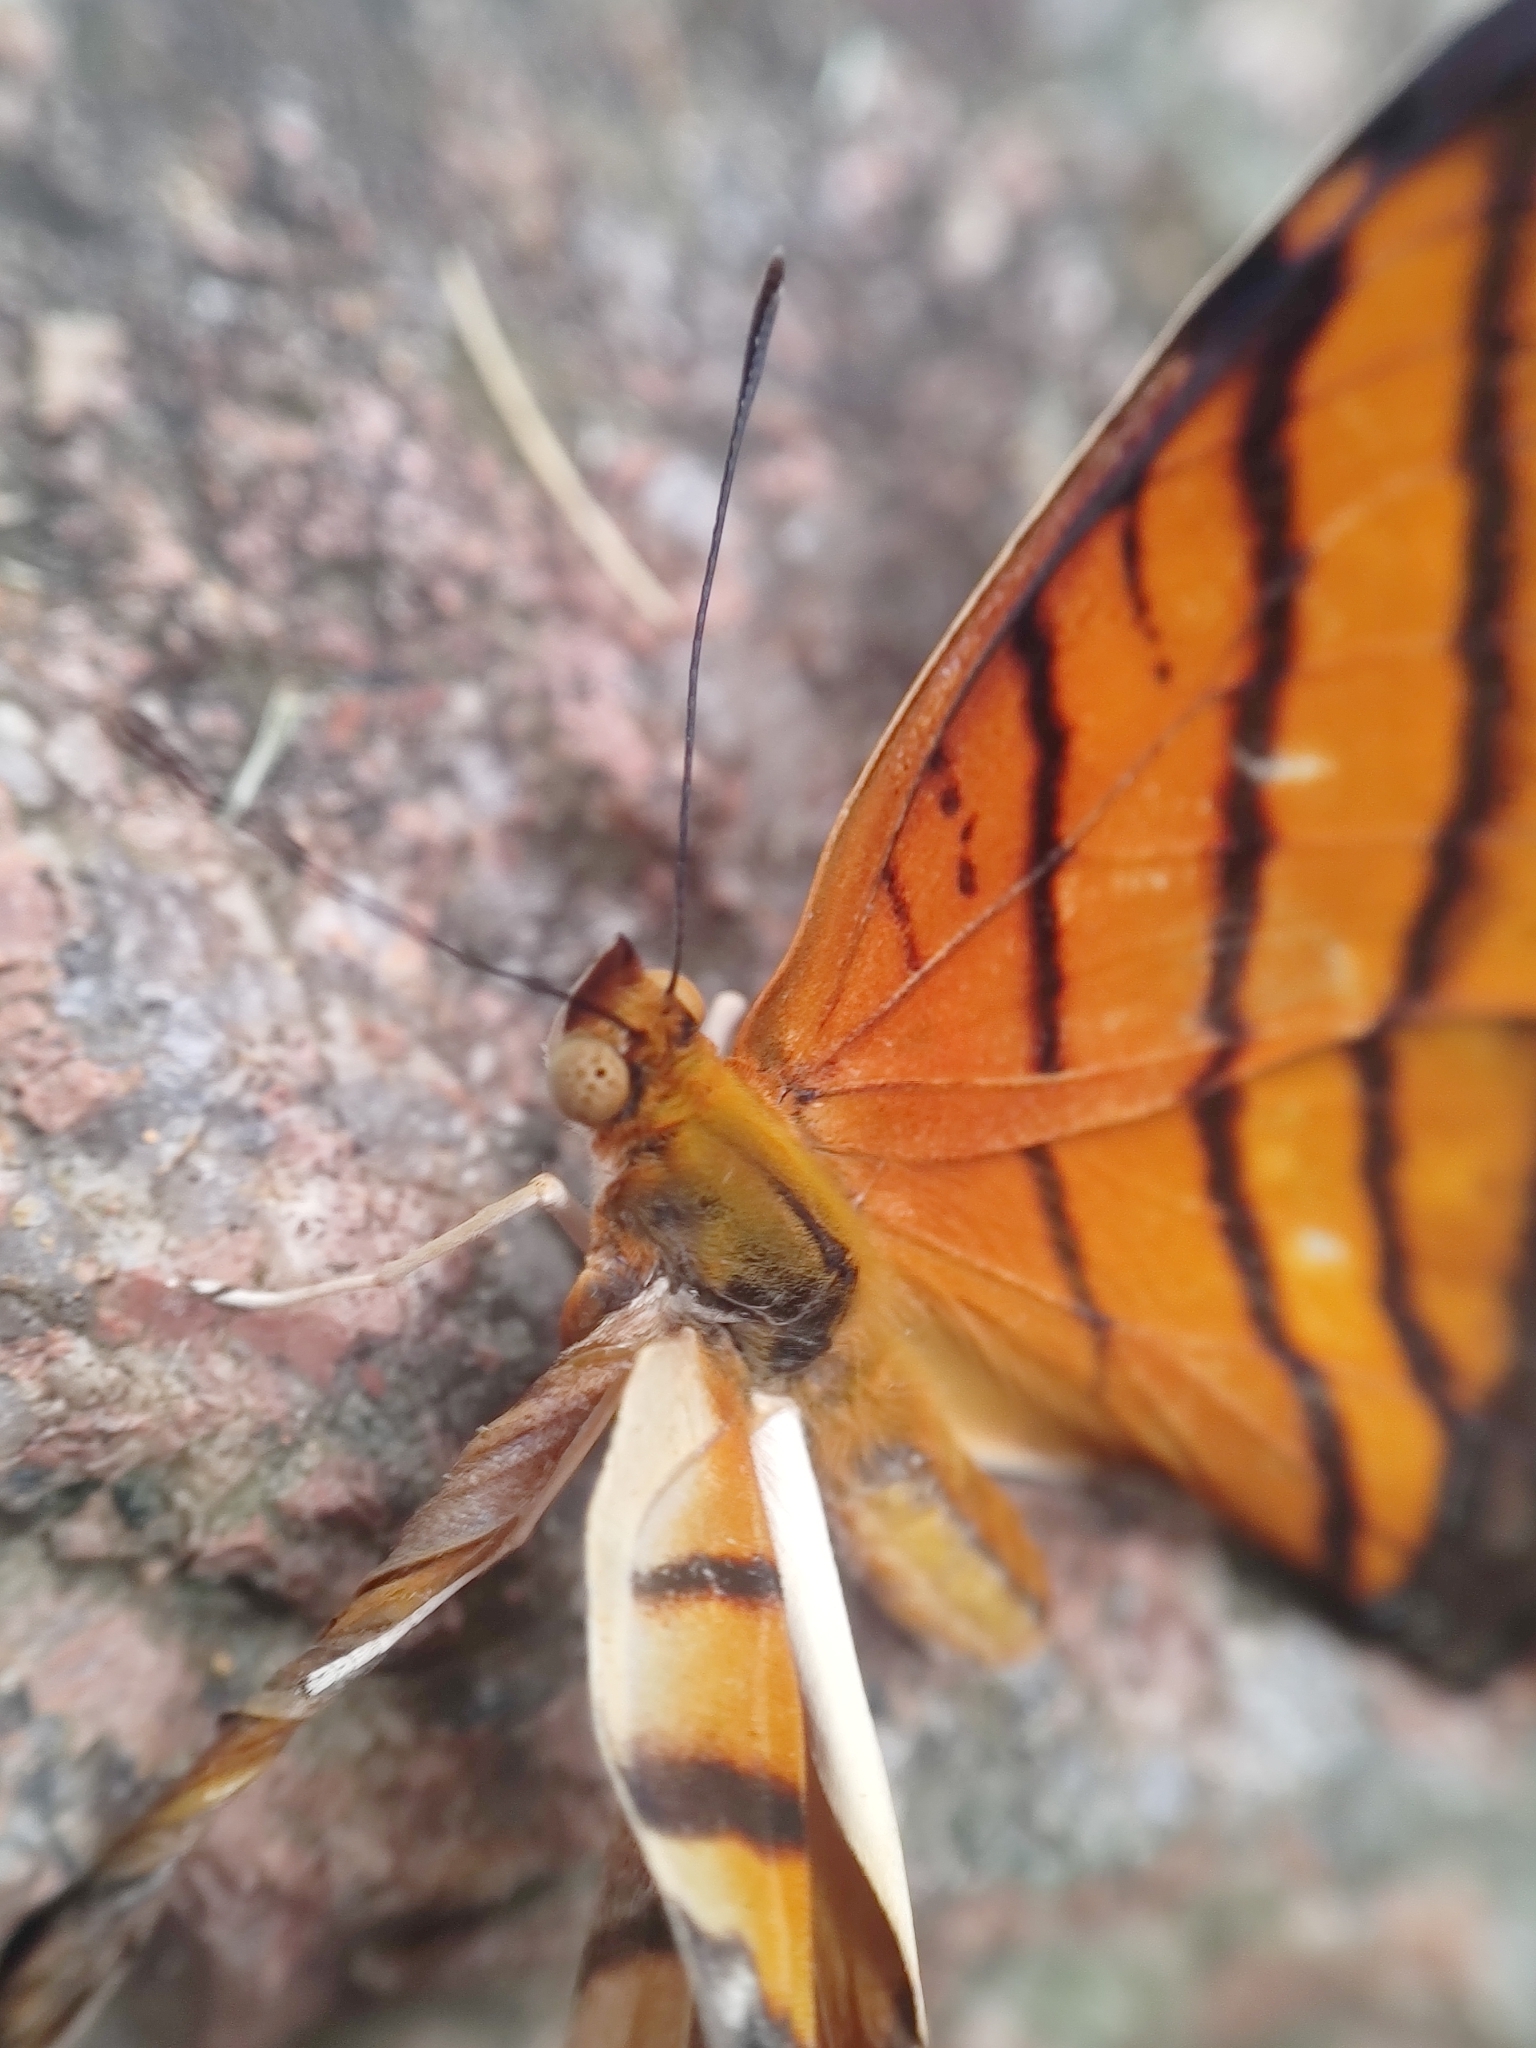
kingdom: Animalia
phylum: Arthropoda
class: Insecta
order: Lepidoptera
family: Nymphalidae
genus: Marpesia
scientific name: Marpesia petreus
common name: Red dagger wing
